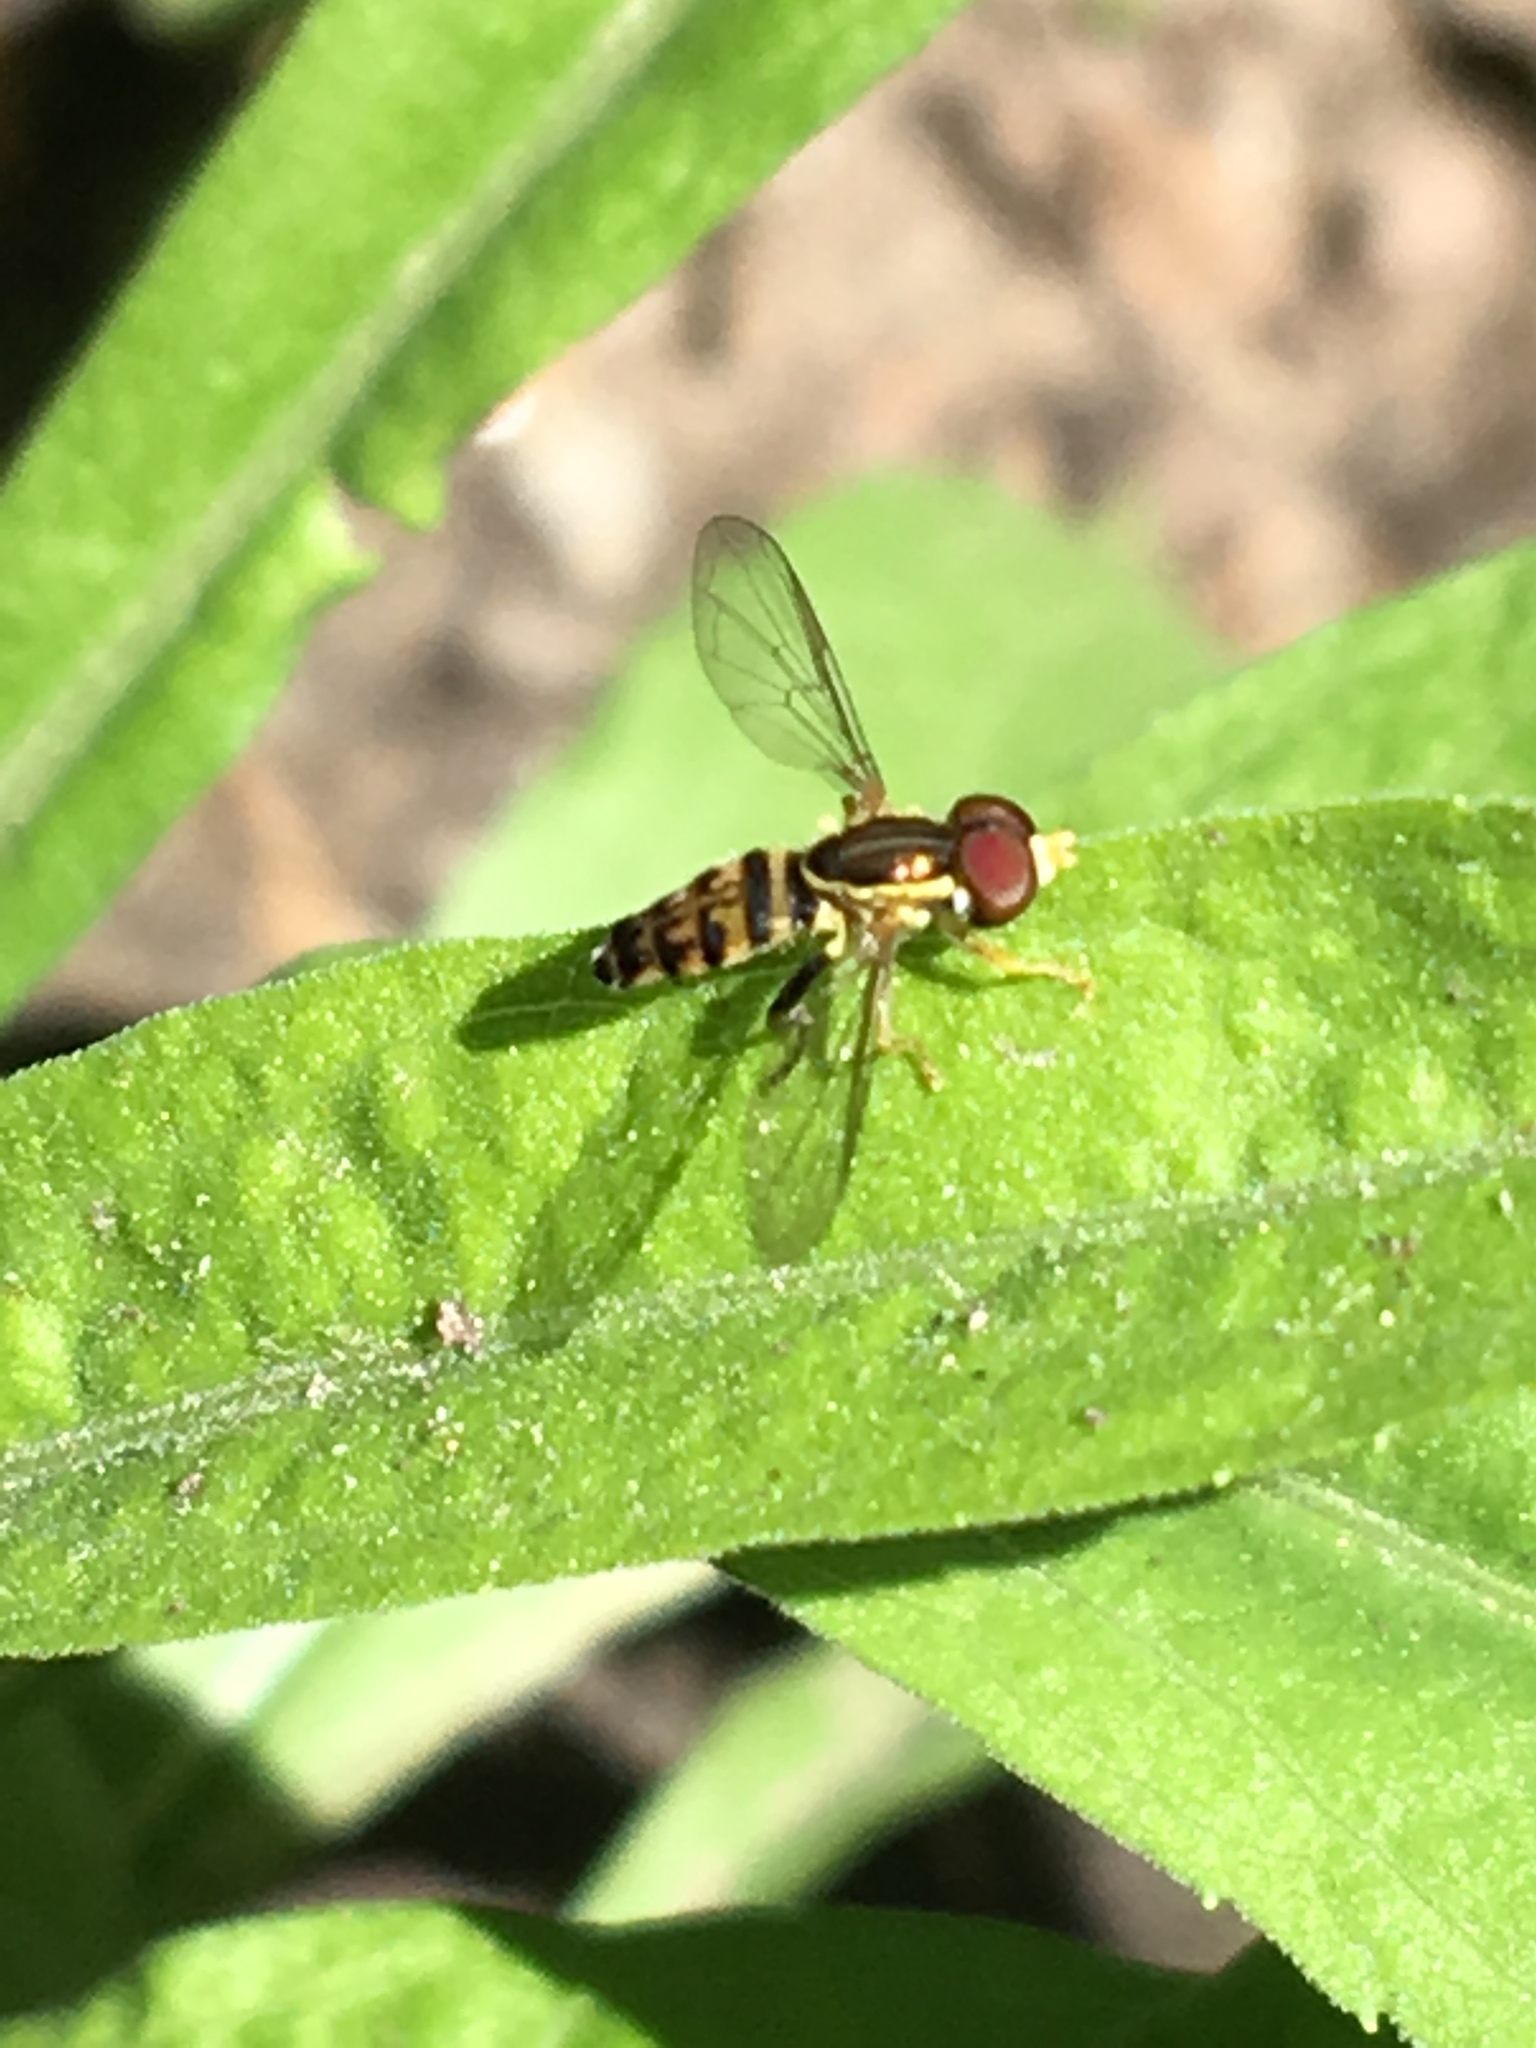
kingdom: Animalia
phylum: Arthropoda
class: Insecta
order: Diptera
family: Syrphidae
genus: Toxomerus
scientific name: Toxomerus geminatus
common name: Eastern calligrapher
